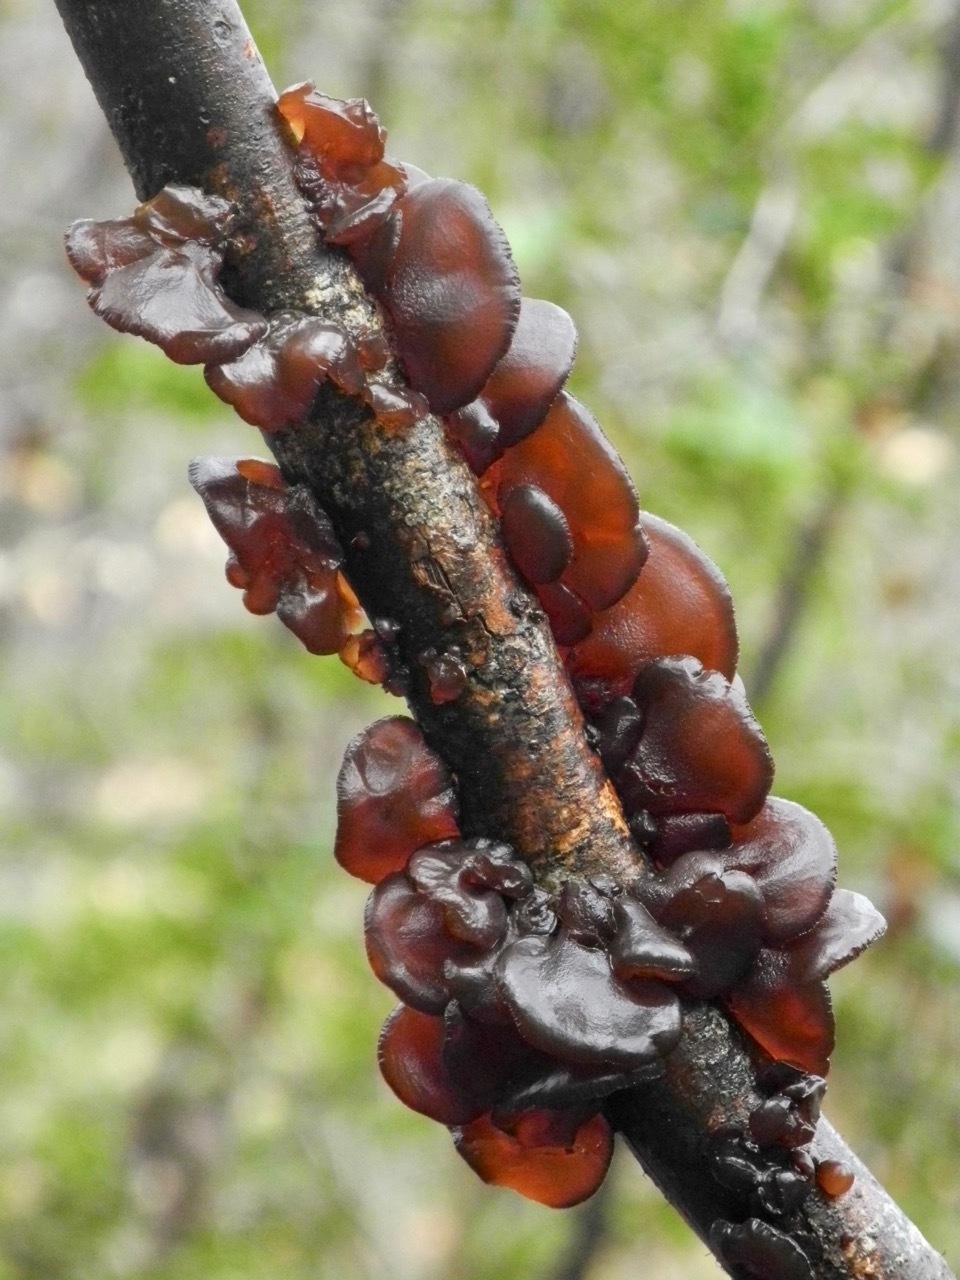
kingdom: Fungi
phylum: Basidiomycota
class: Agaricomycetes
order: Auriculariales
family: Auriculariaceae
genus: Exidia
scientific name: Exidia recisa
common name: Amber jelly
